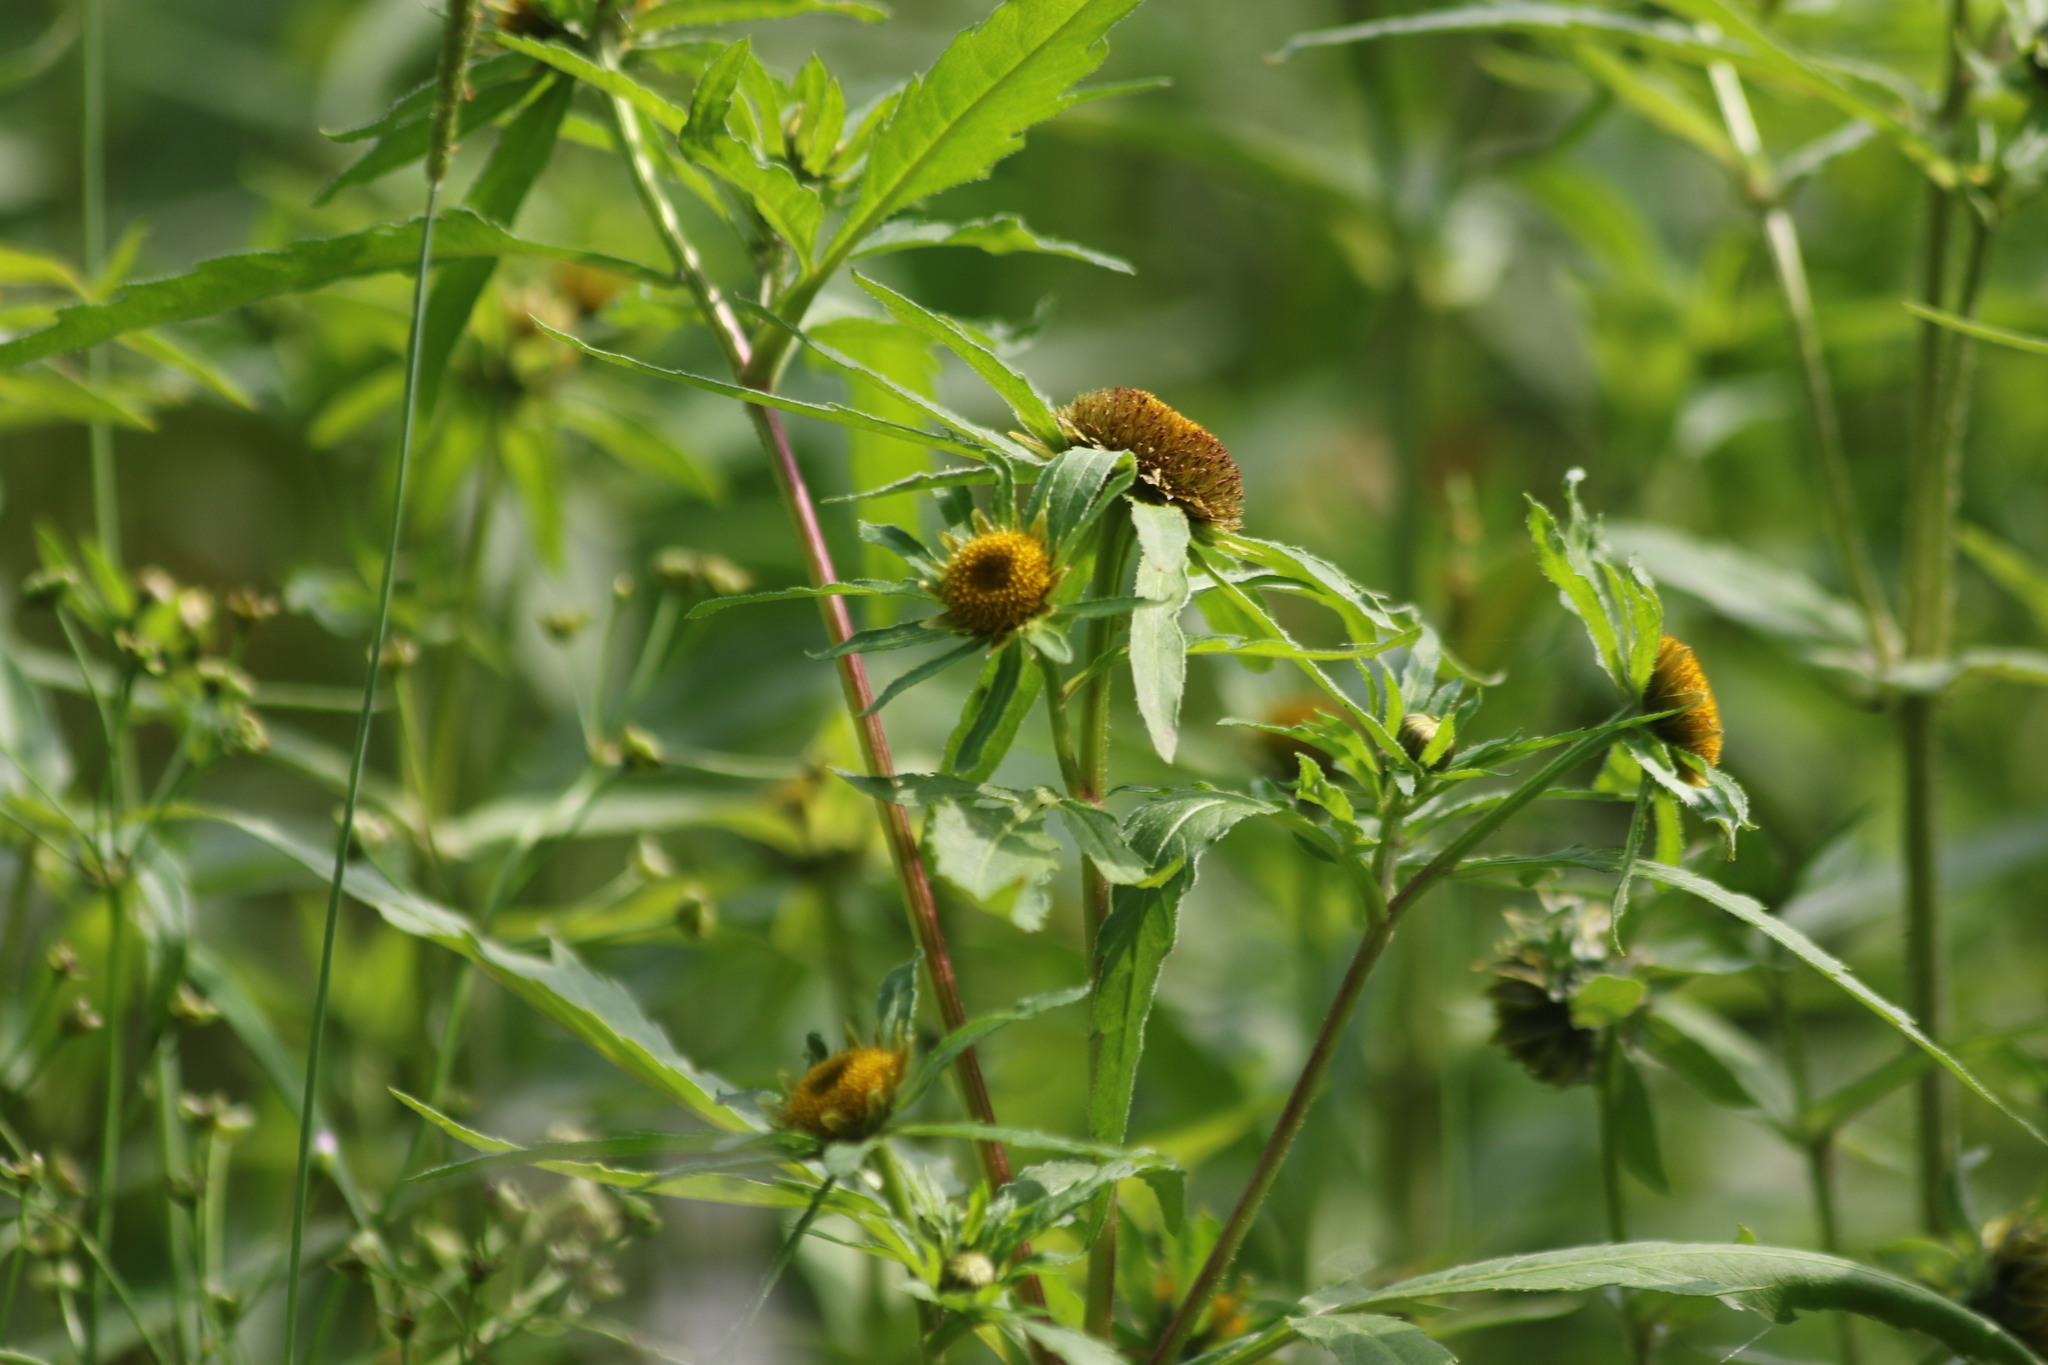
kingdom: Plantae
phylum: Tracheophyta
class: Magnoliopsida
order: Asterales
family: Asteraceae
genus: Bidens
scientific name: Bidens radiata
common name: Radiating bur-marigold
